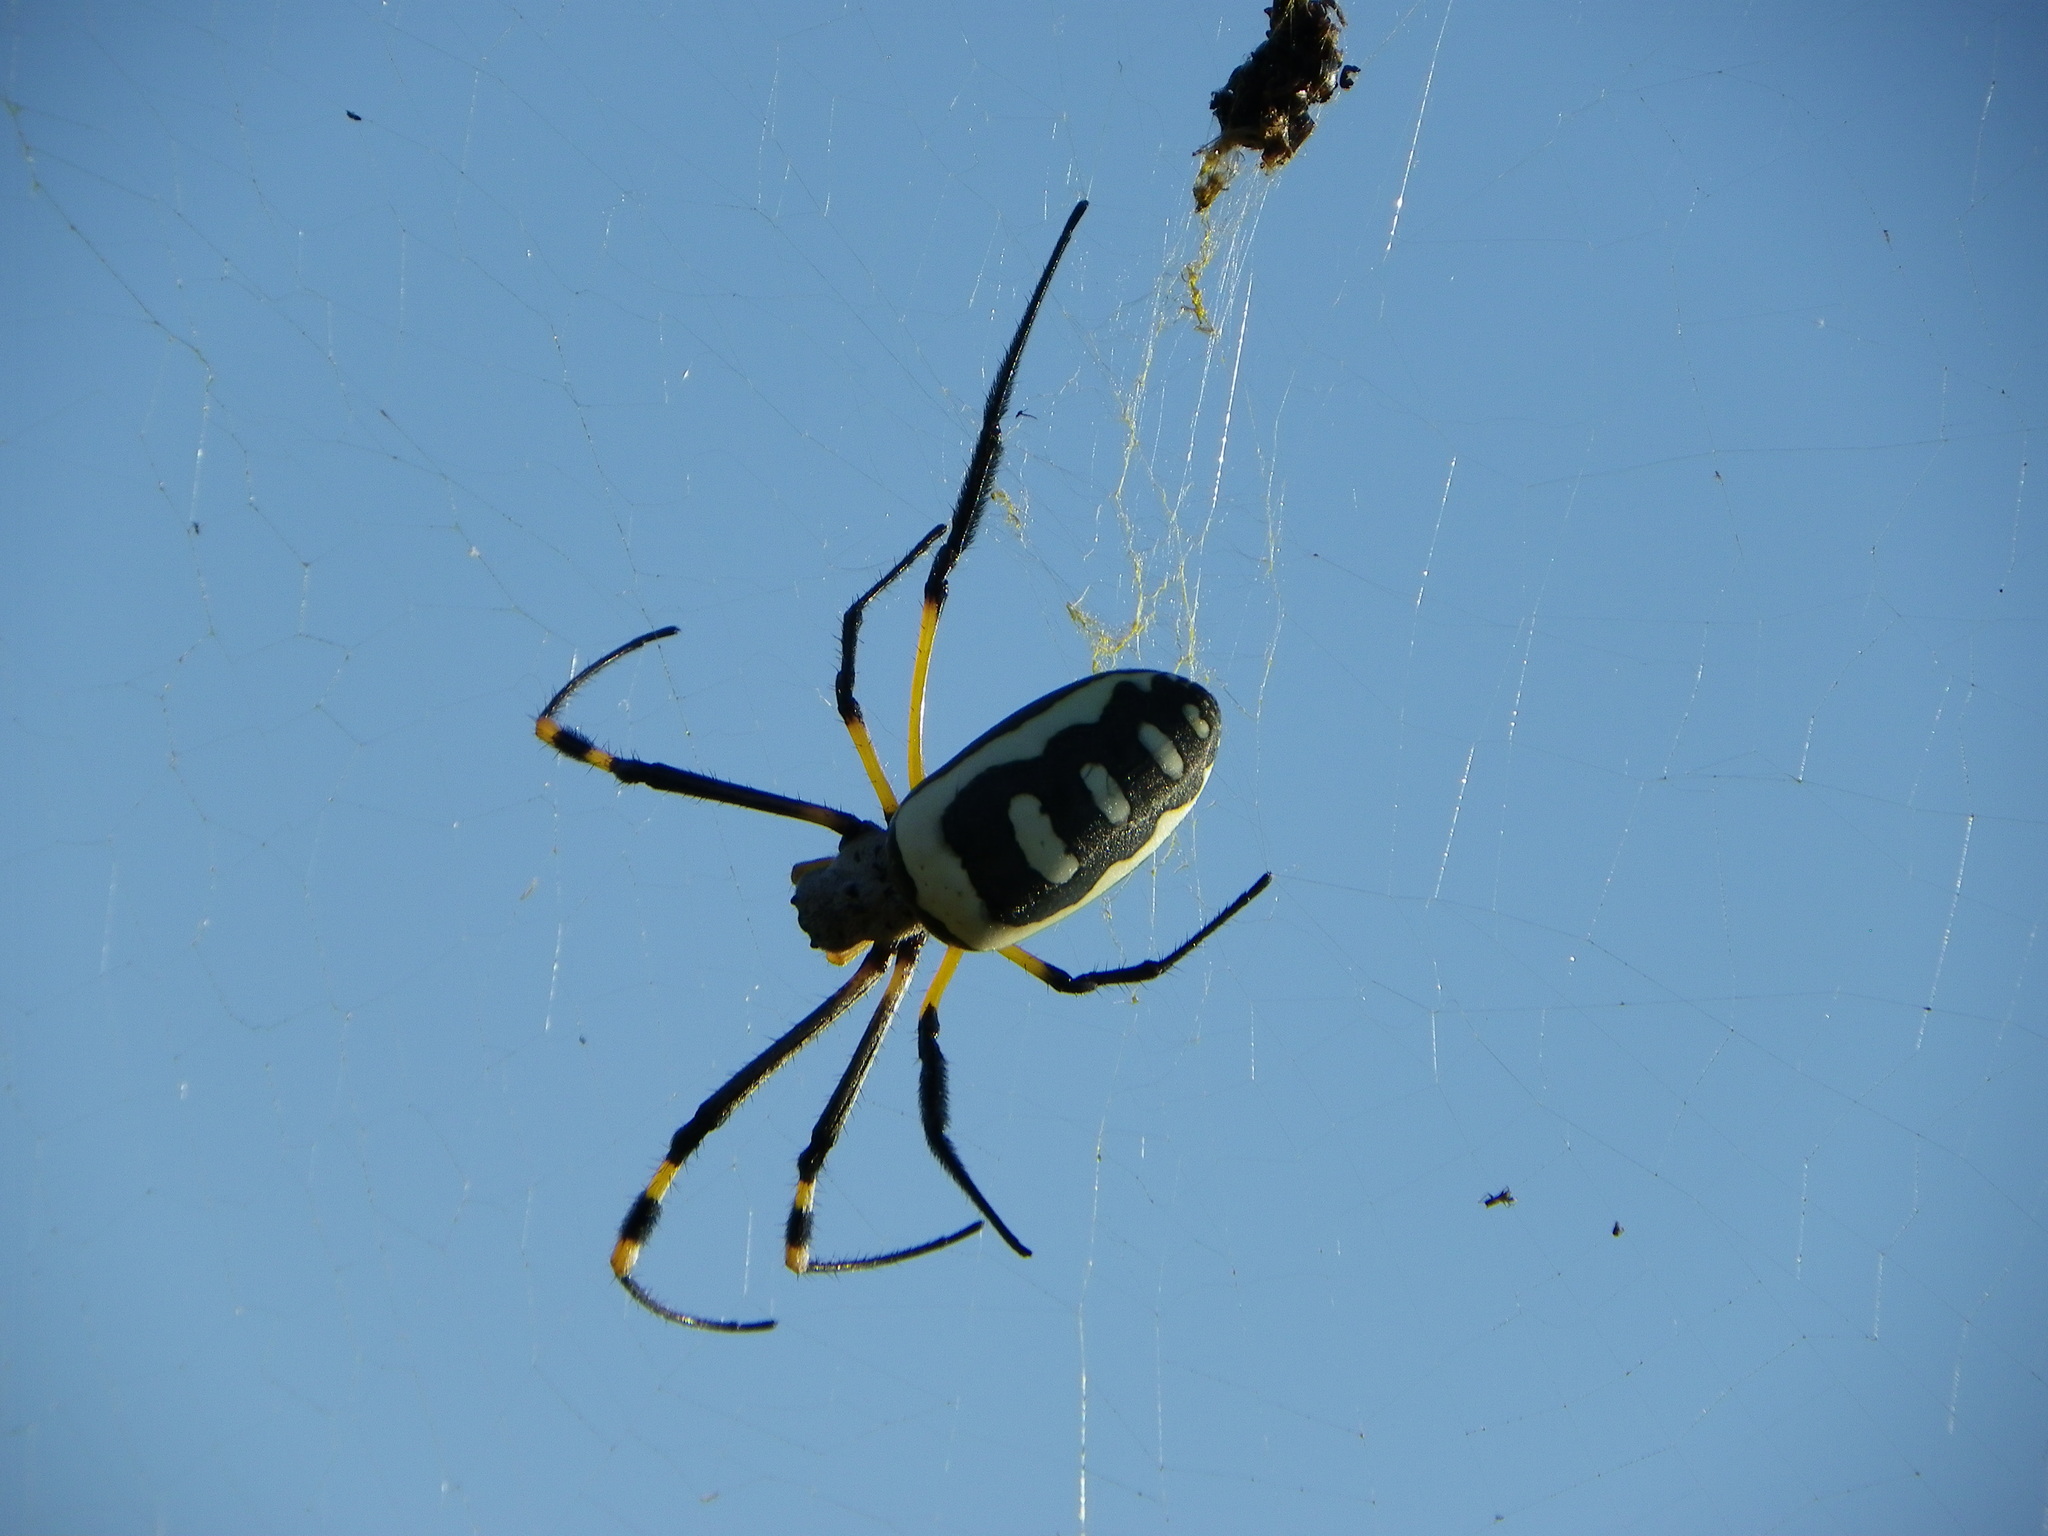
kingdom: Animalia
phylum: Arthropoda
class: Arachnida
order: Araneae
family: Araneidae
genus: Trichonephila
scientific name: Trichonephila senegalensis
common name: Banded golden orb weaver
